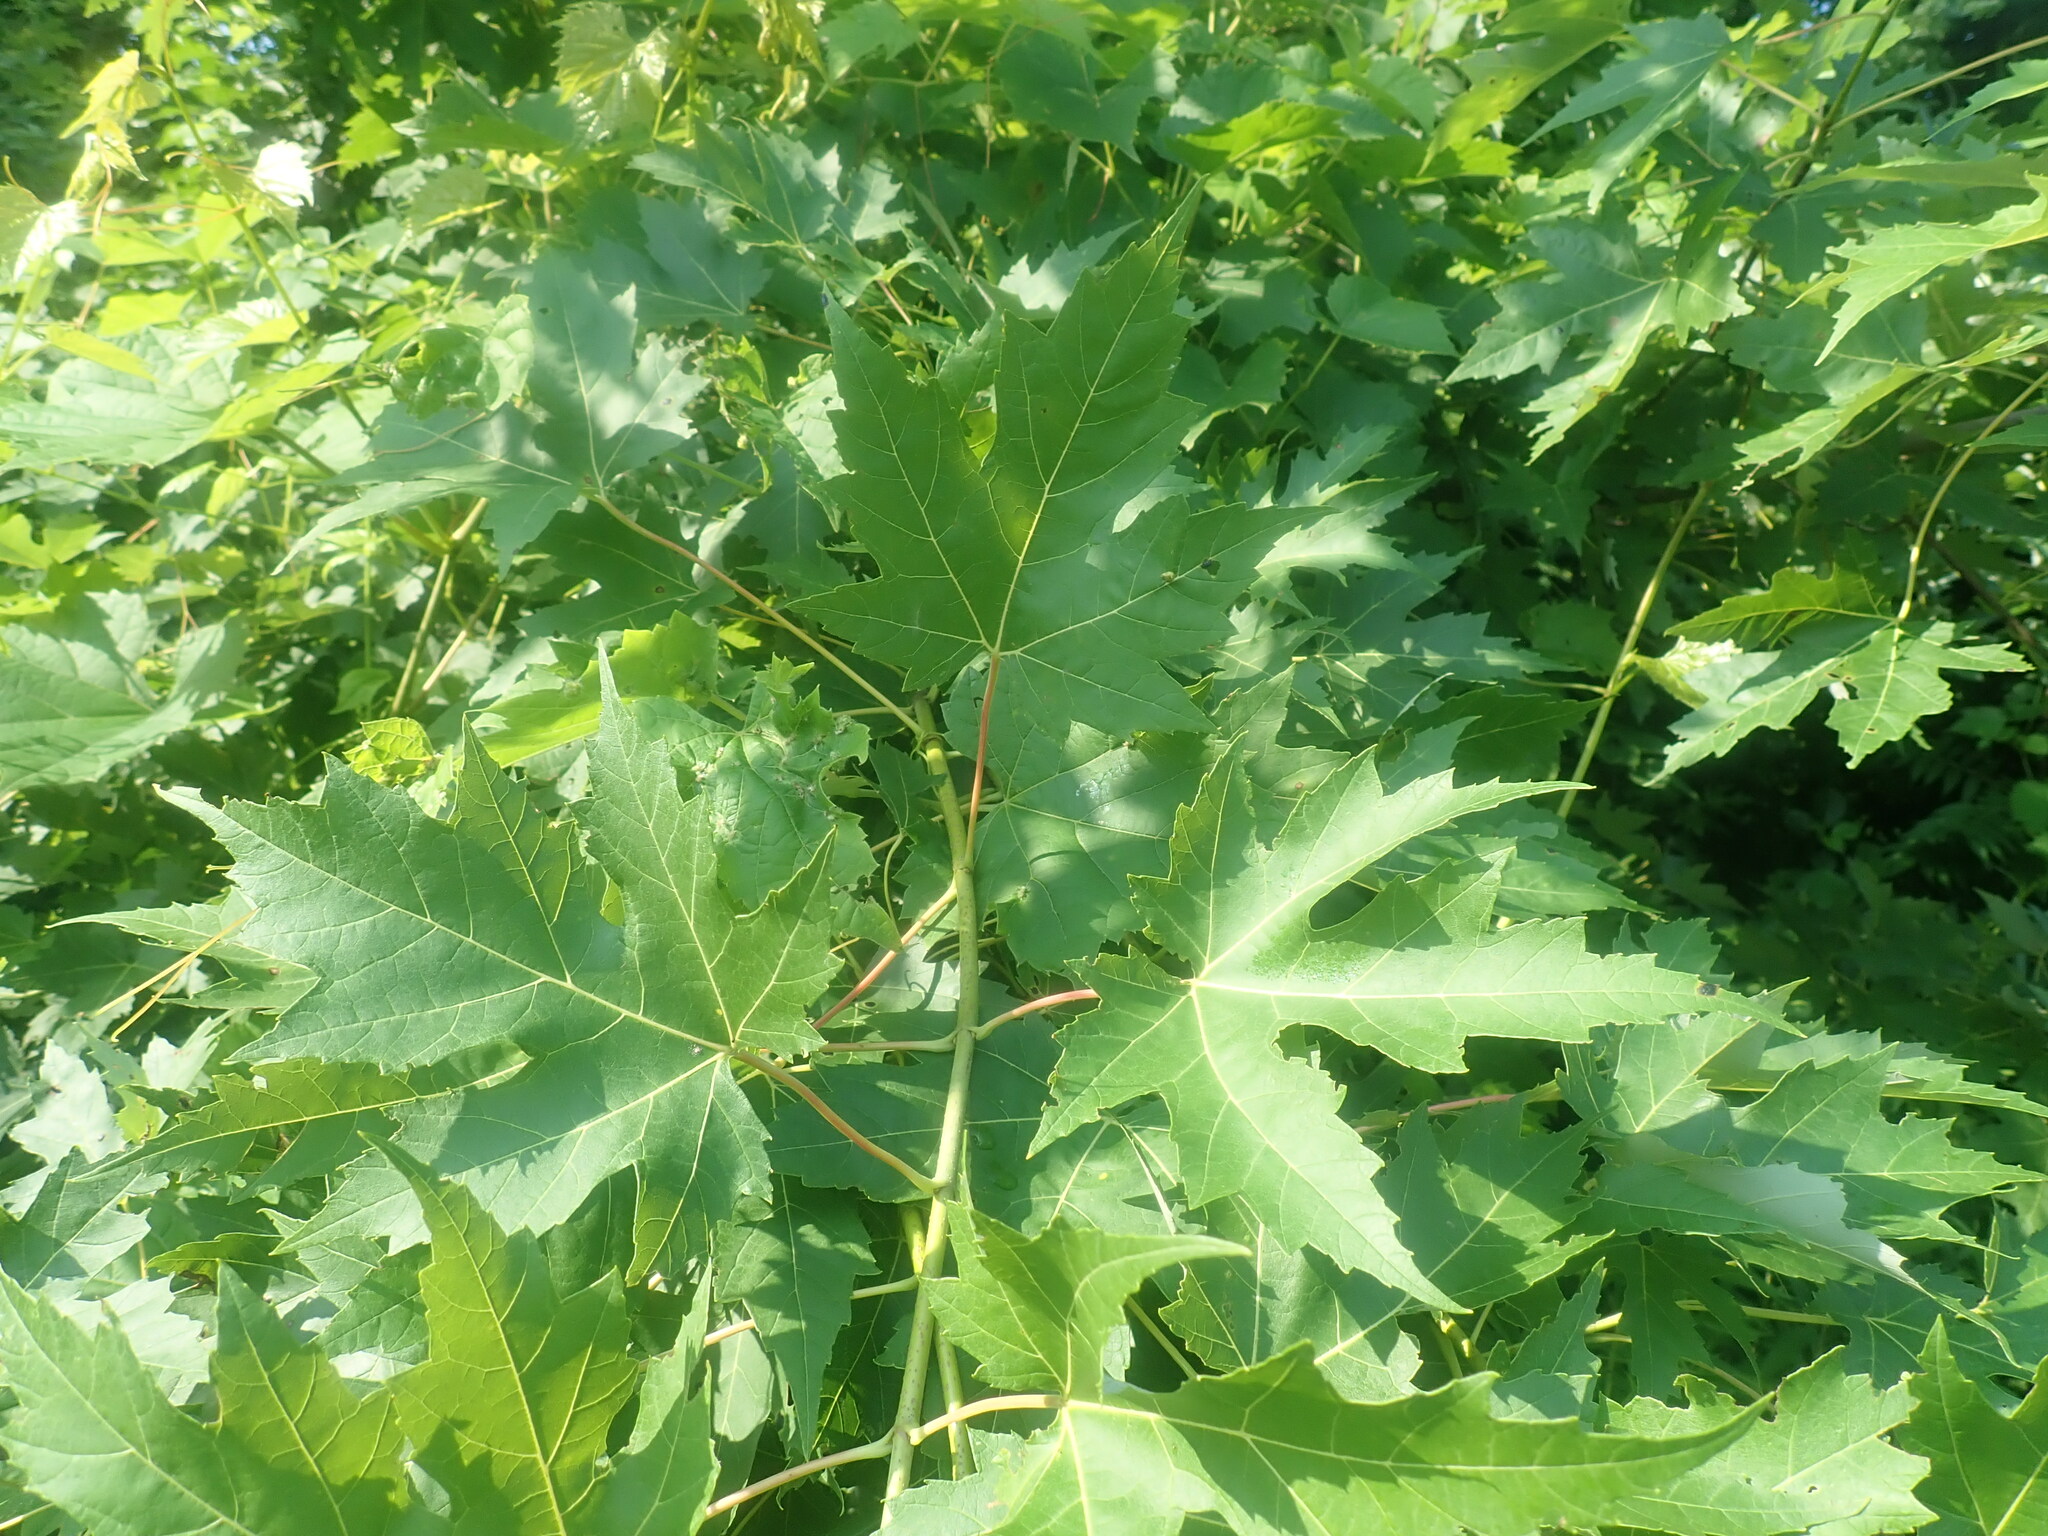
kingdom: Plantae
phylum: Tracheophyta
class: Magnoliopsida
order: Sapindales
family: Sapindaceae
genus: Acer
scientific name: Acer saccharinum
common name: Silver maple
